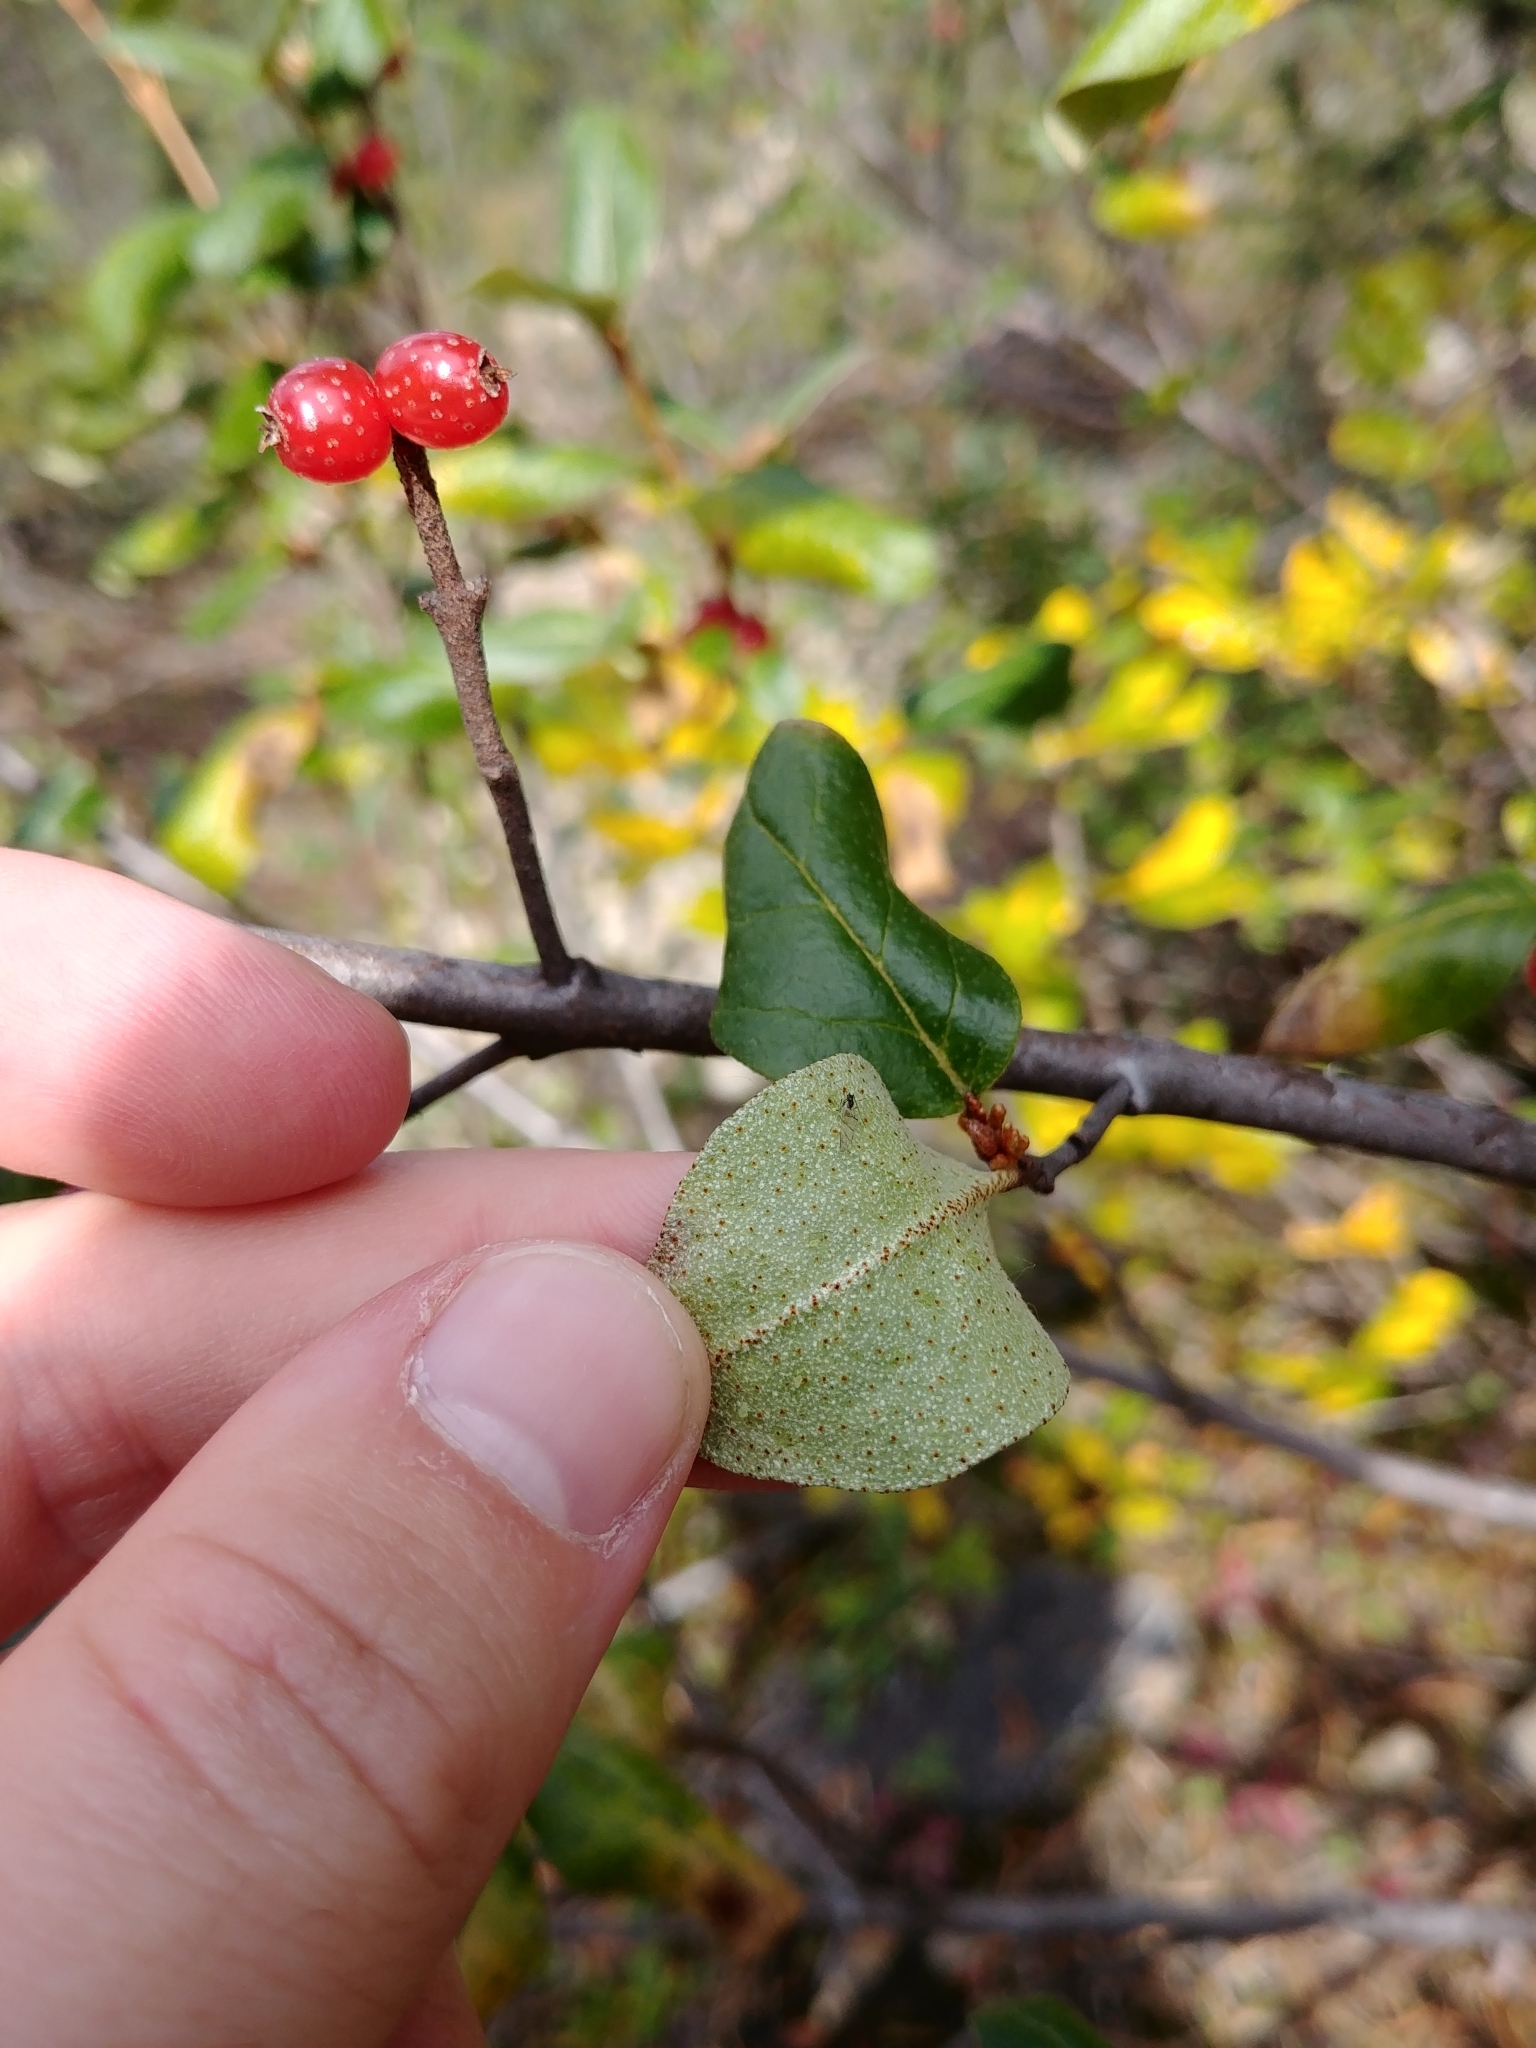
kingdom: Plantae
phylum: Tracheophyta
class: Magnoliopsida
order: Rosales
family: Elaeagnaceae
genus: Shepherdia
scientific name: Shepherdia canadensis
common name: Soapberry
